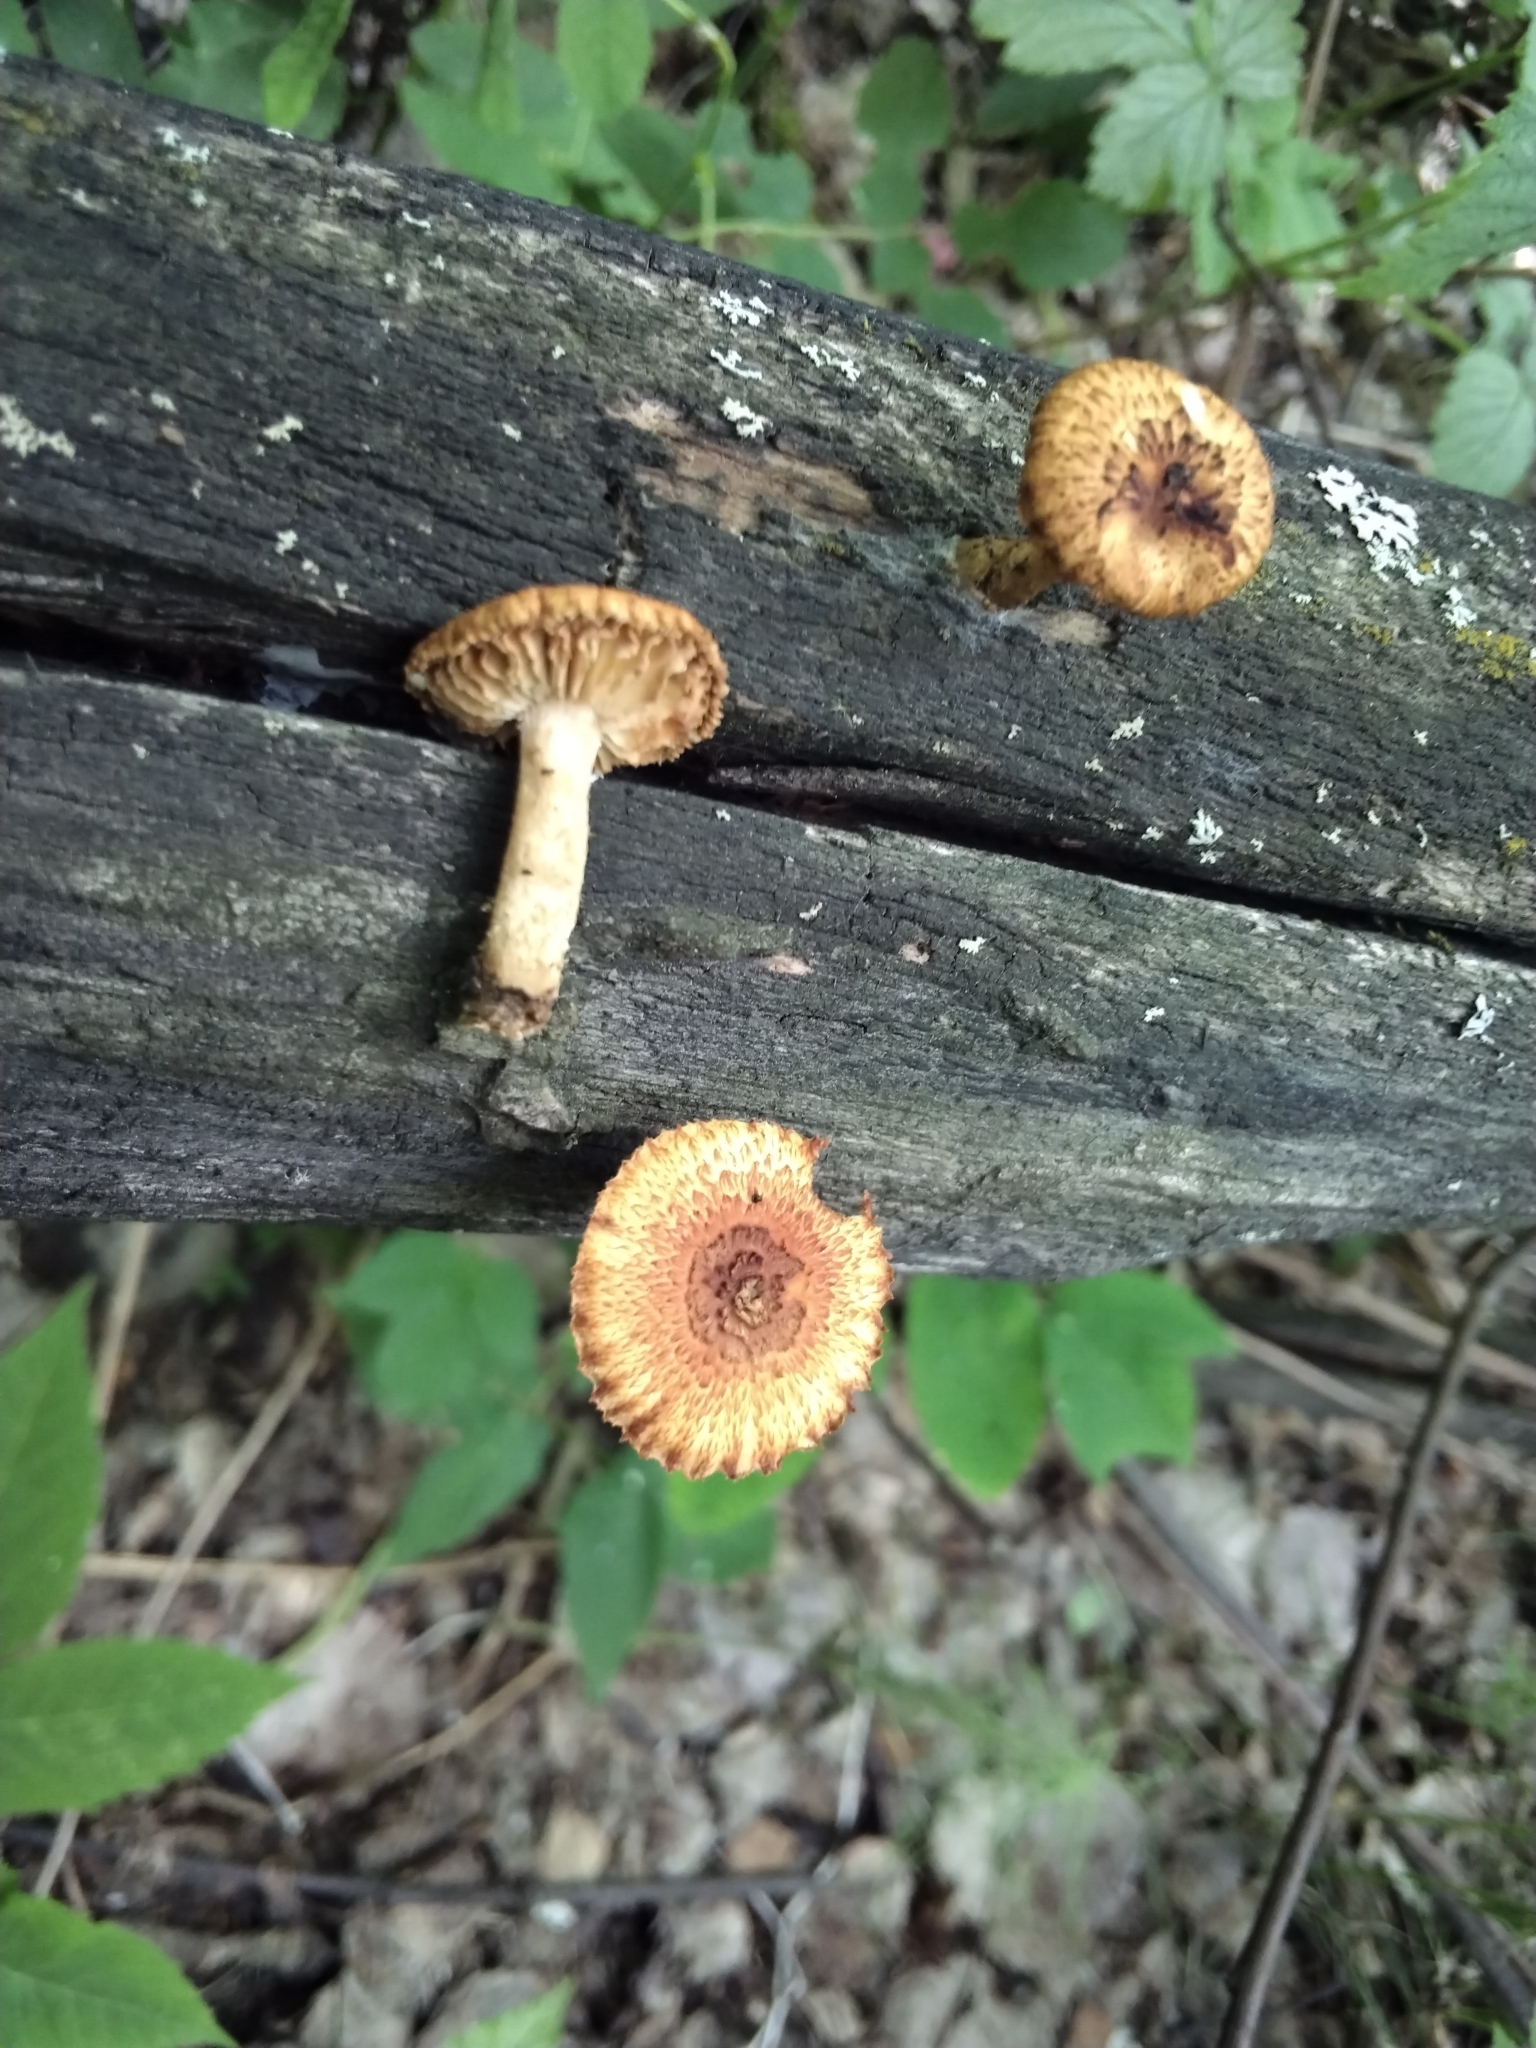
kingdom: Fungi
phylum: Basidiomycota
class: Agaricomycetes
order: Gloeophyllales
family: Gloeophyllaceae
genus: Heliocybe
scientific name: Heliocybe sulcata
